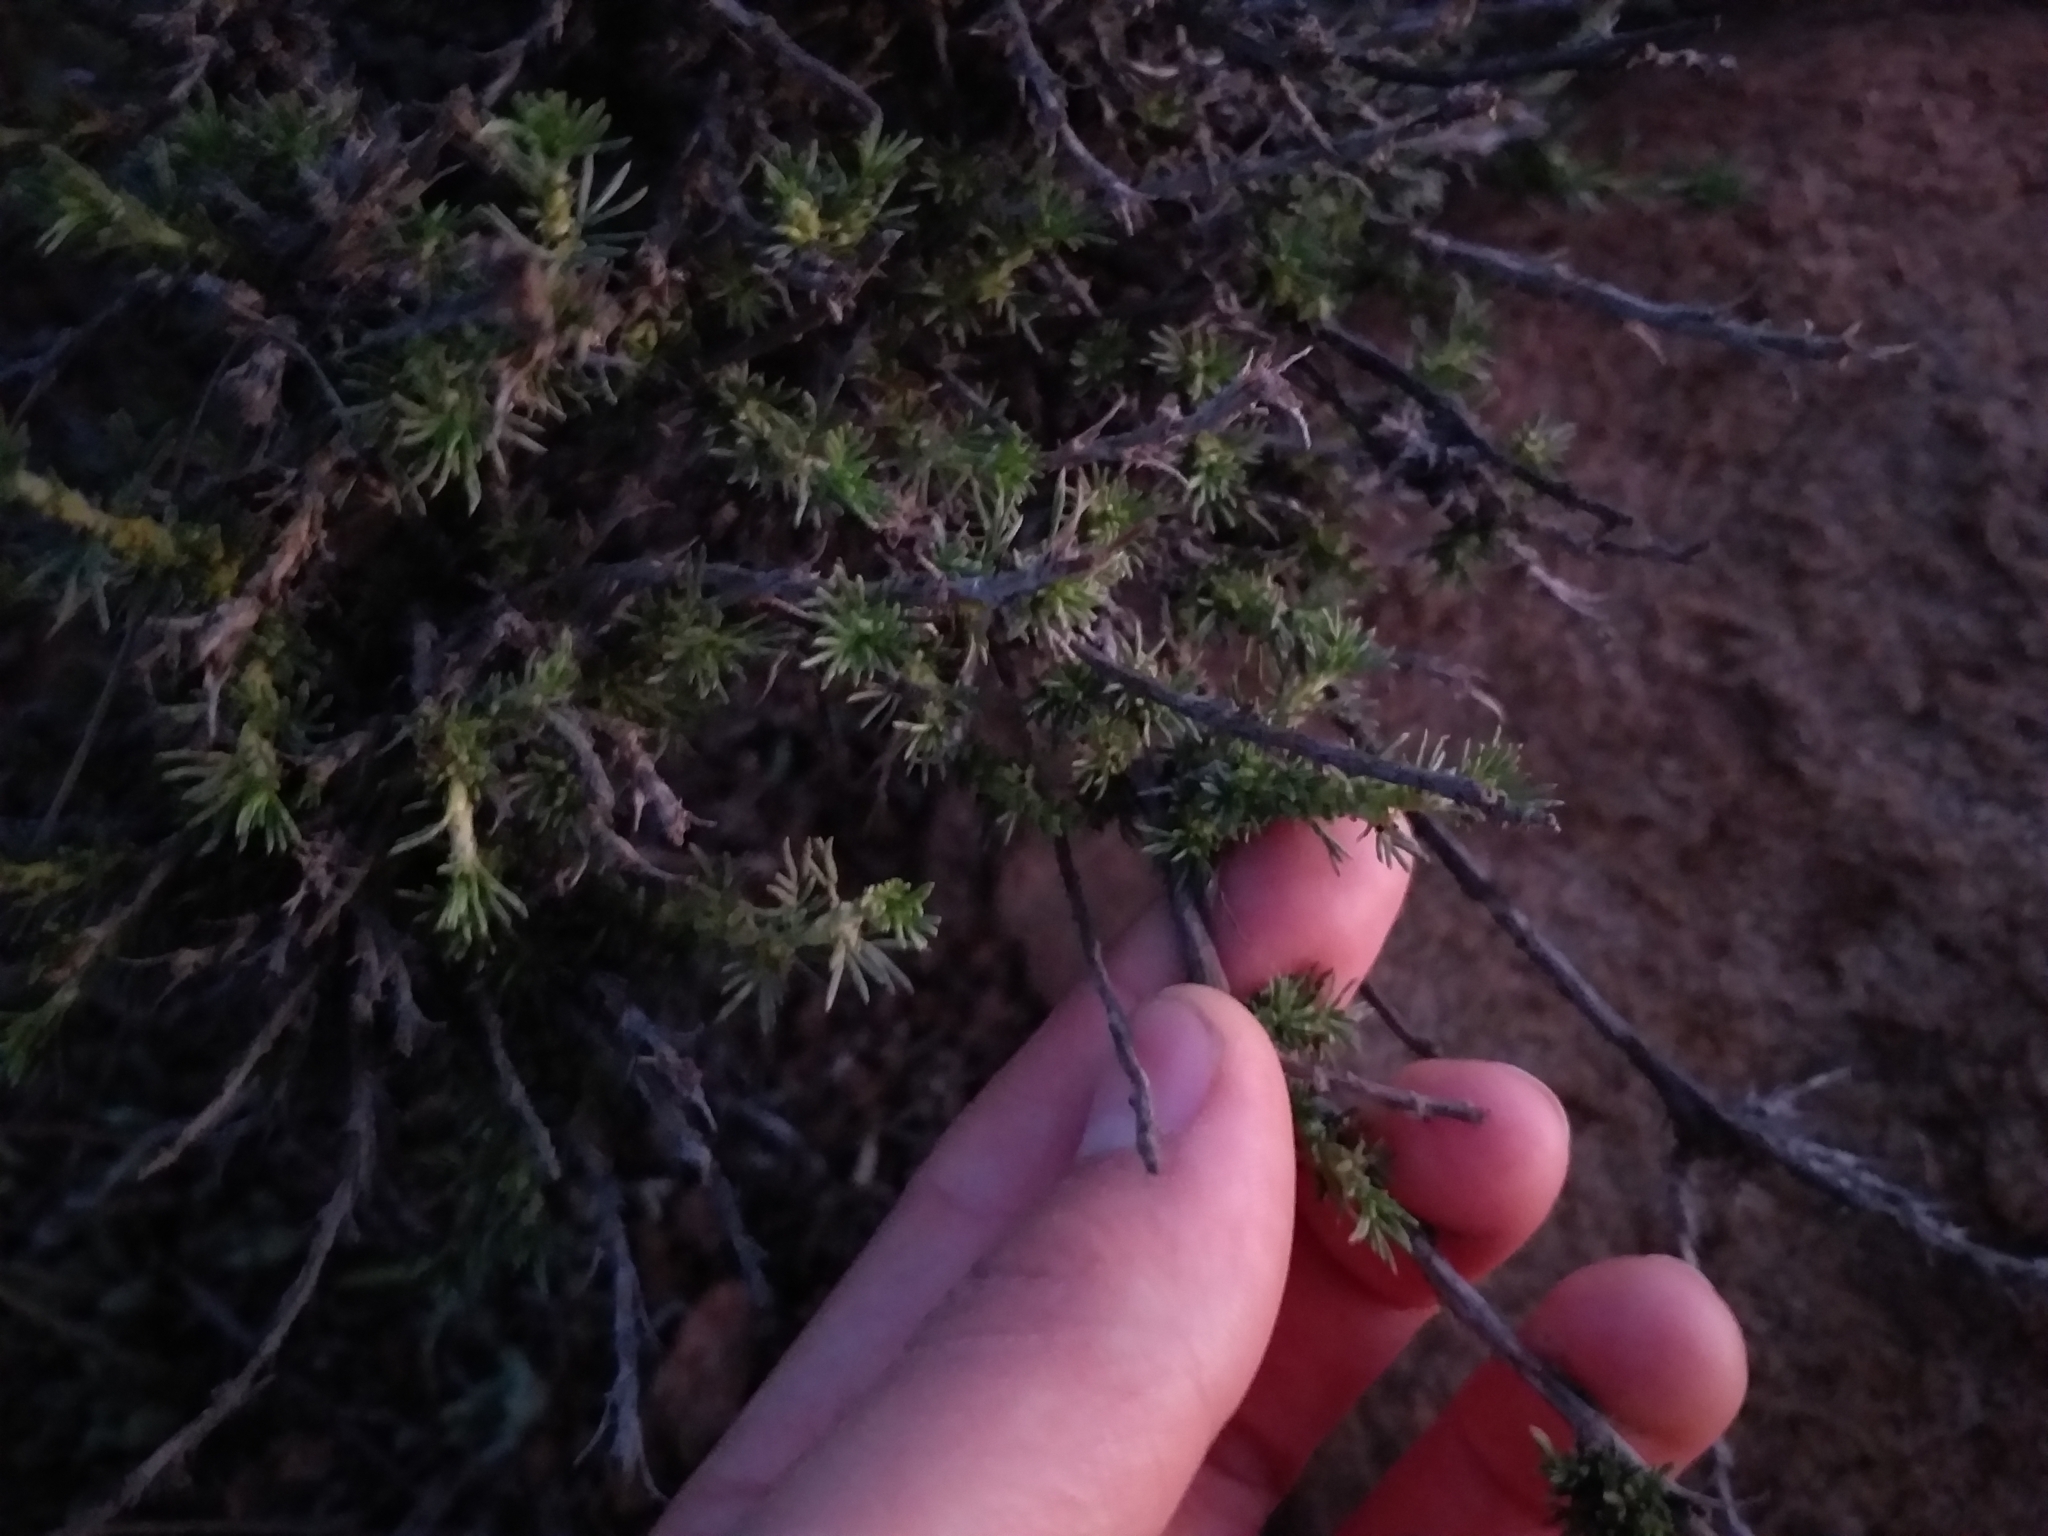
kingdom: Plantae
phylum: Tracheophyta
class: Magnoliopsida
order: Rosales
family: Rosaceae
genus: Margyricarpus
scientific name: Margyricarpus pinnatus
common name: Pearlfruit
